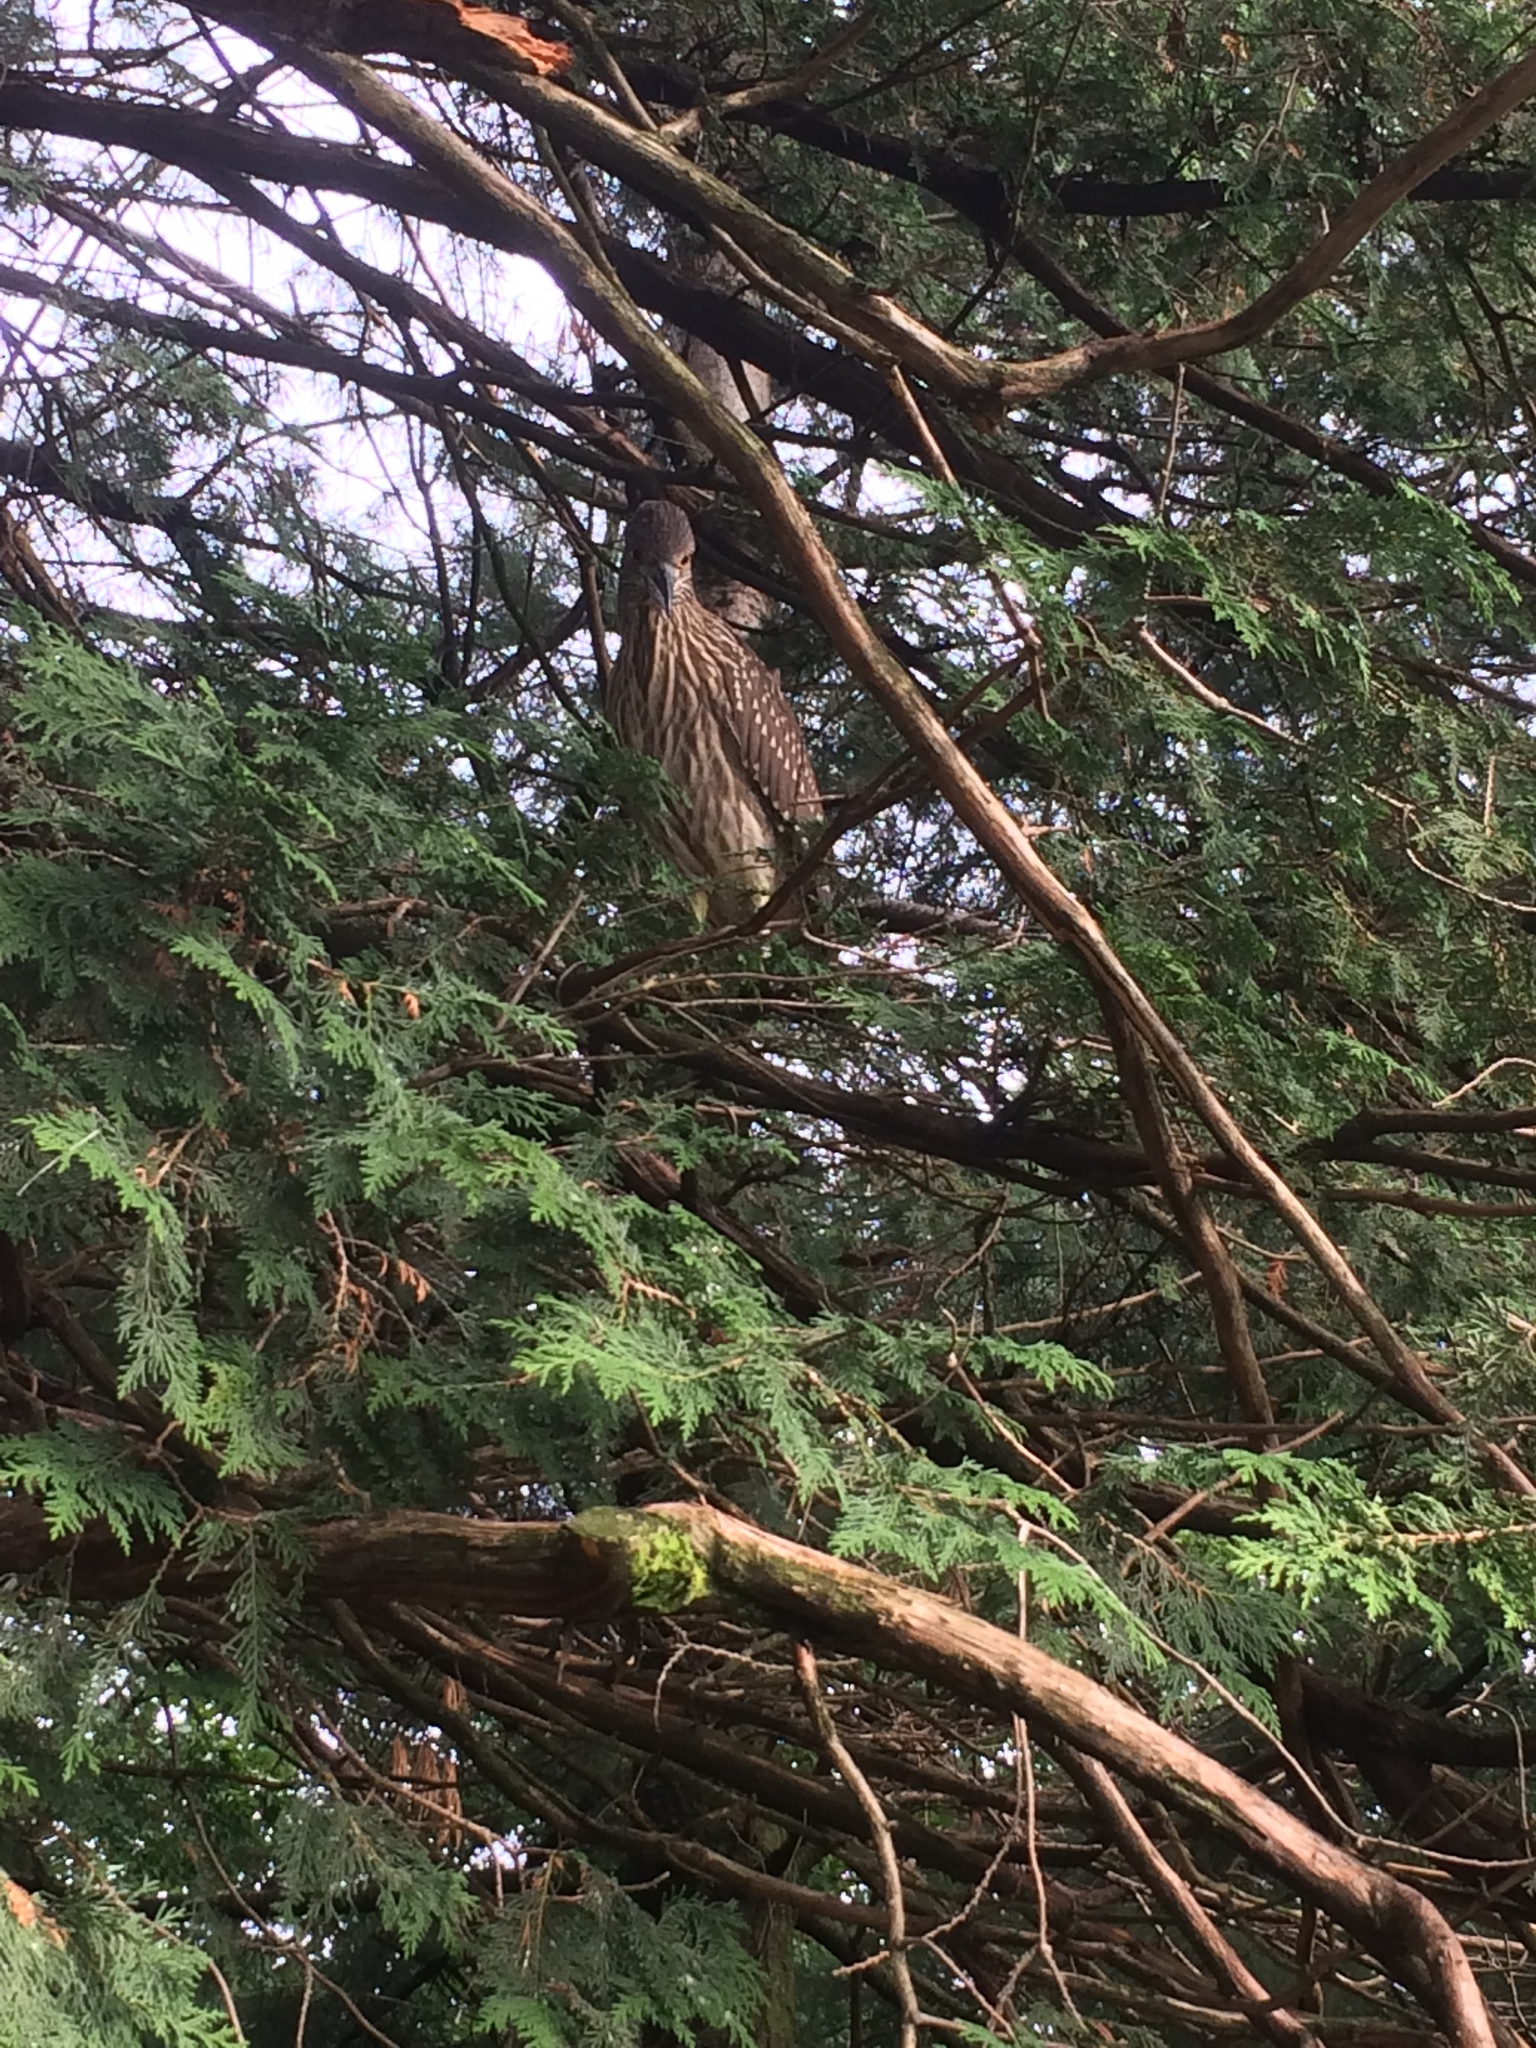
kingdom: Animalia
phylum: Chordata
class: Aves
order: Pelecaniformes
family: Ardeidae
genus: Nycticorax
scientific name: Nycticorax nycticorax
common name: Black-crowned night heron
